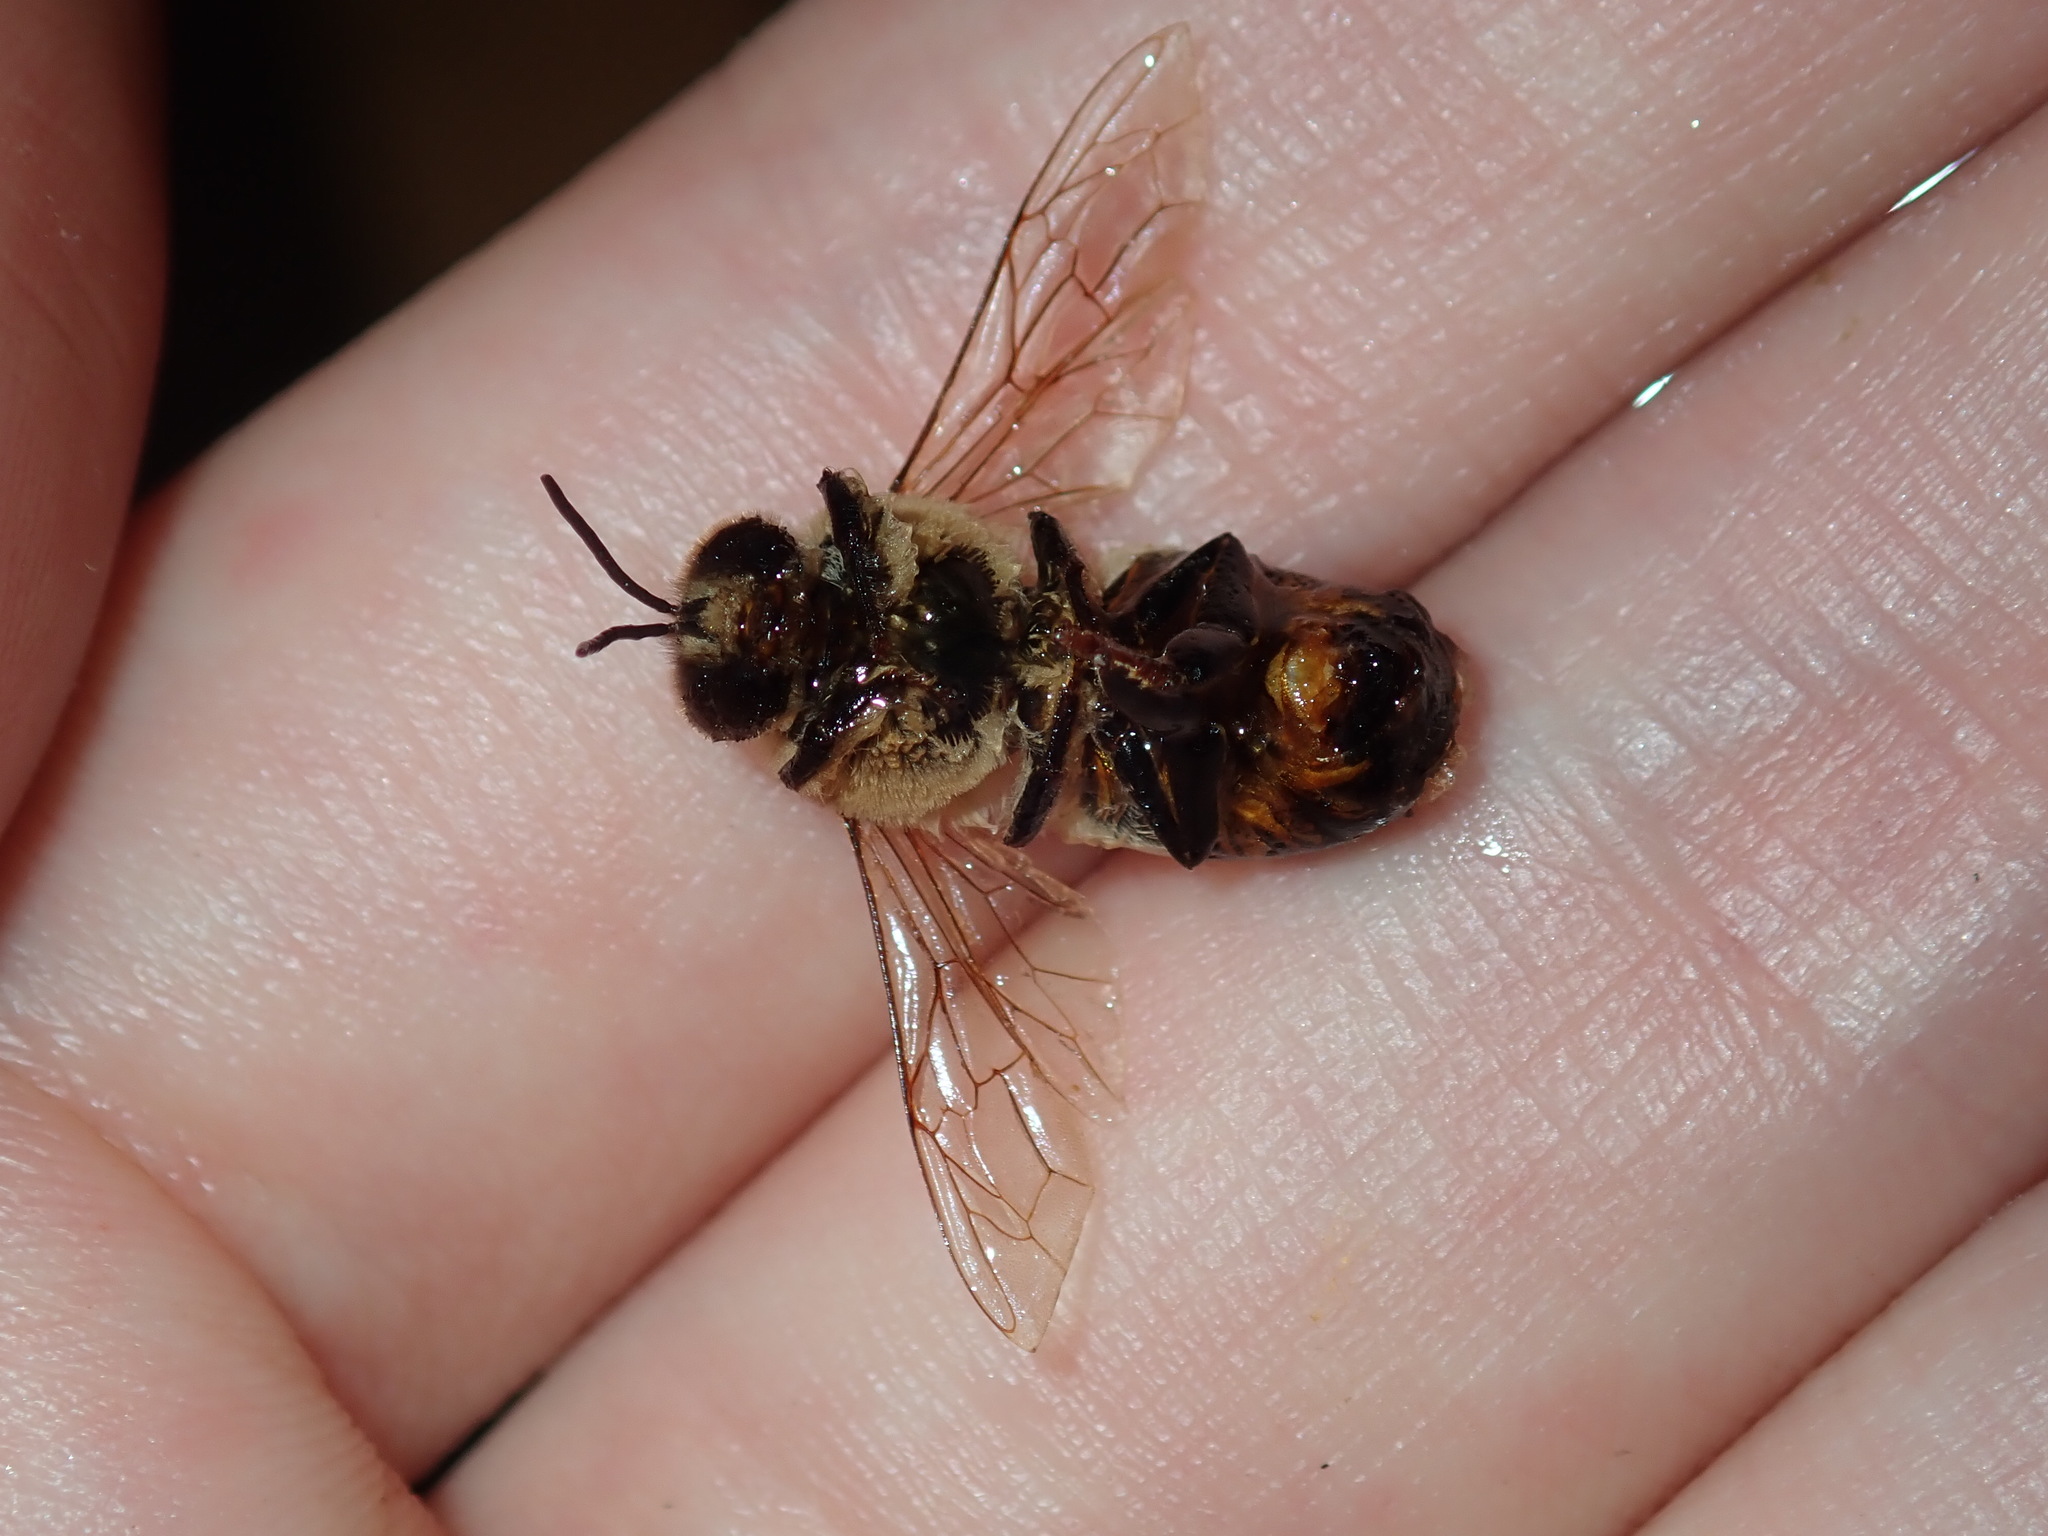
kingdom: Animalia
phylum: Arthropoda
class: Insecta
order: Hymenoptera
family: Apidae
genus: Apis
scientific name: Apis mellifera
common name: Honey bee
